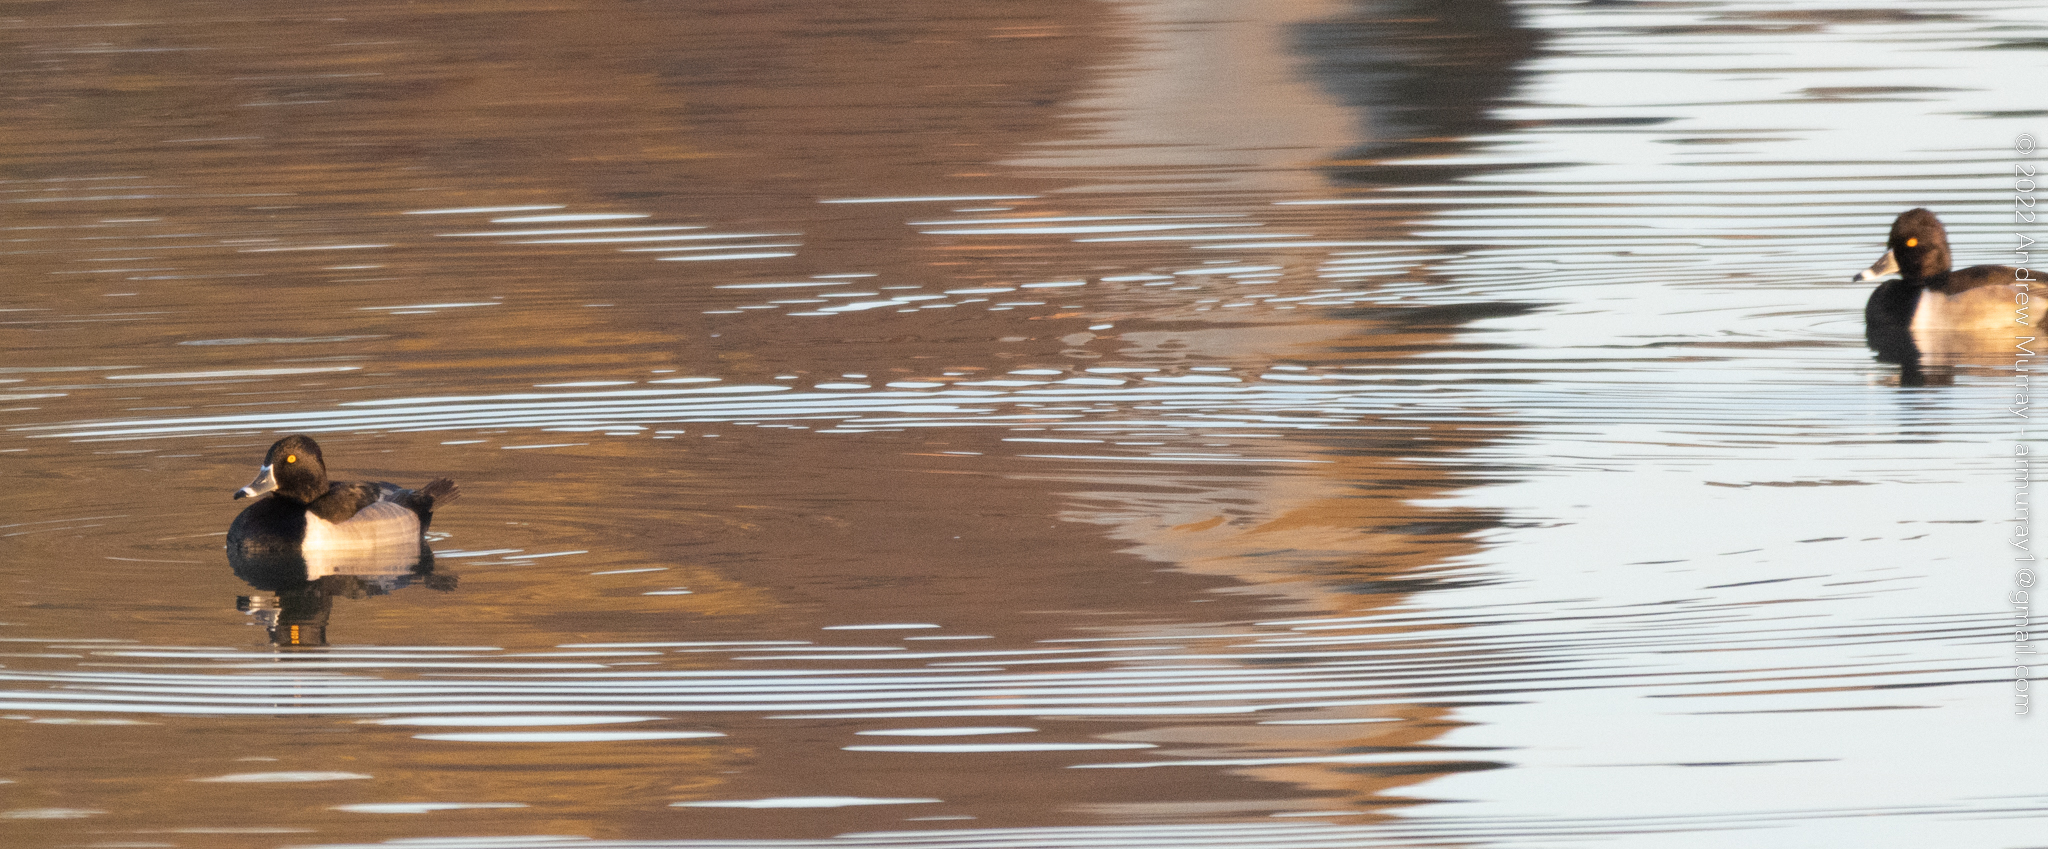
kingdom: Animalia
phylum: Chordata
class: Aves
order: Anseriformes
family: Anatidae
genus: Aythya
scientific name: Aythya collaris
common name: Ring-necked duck
